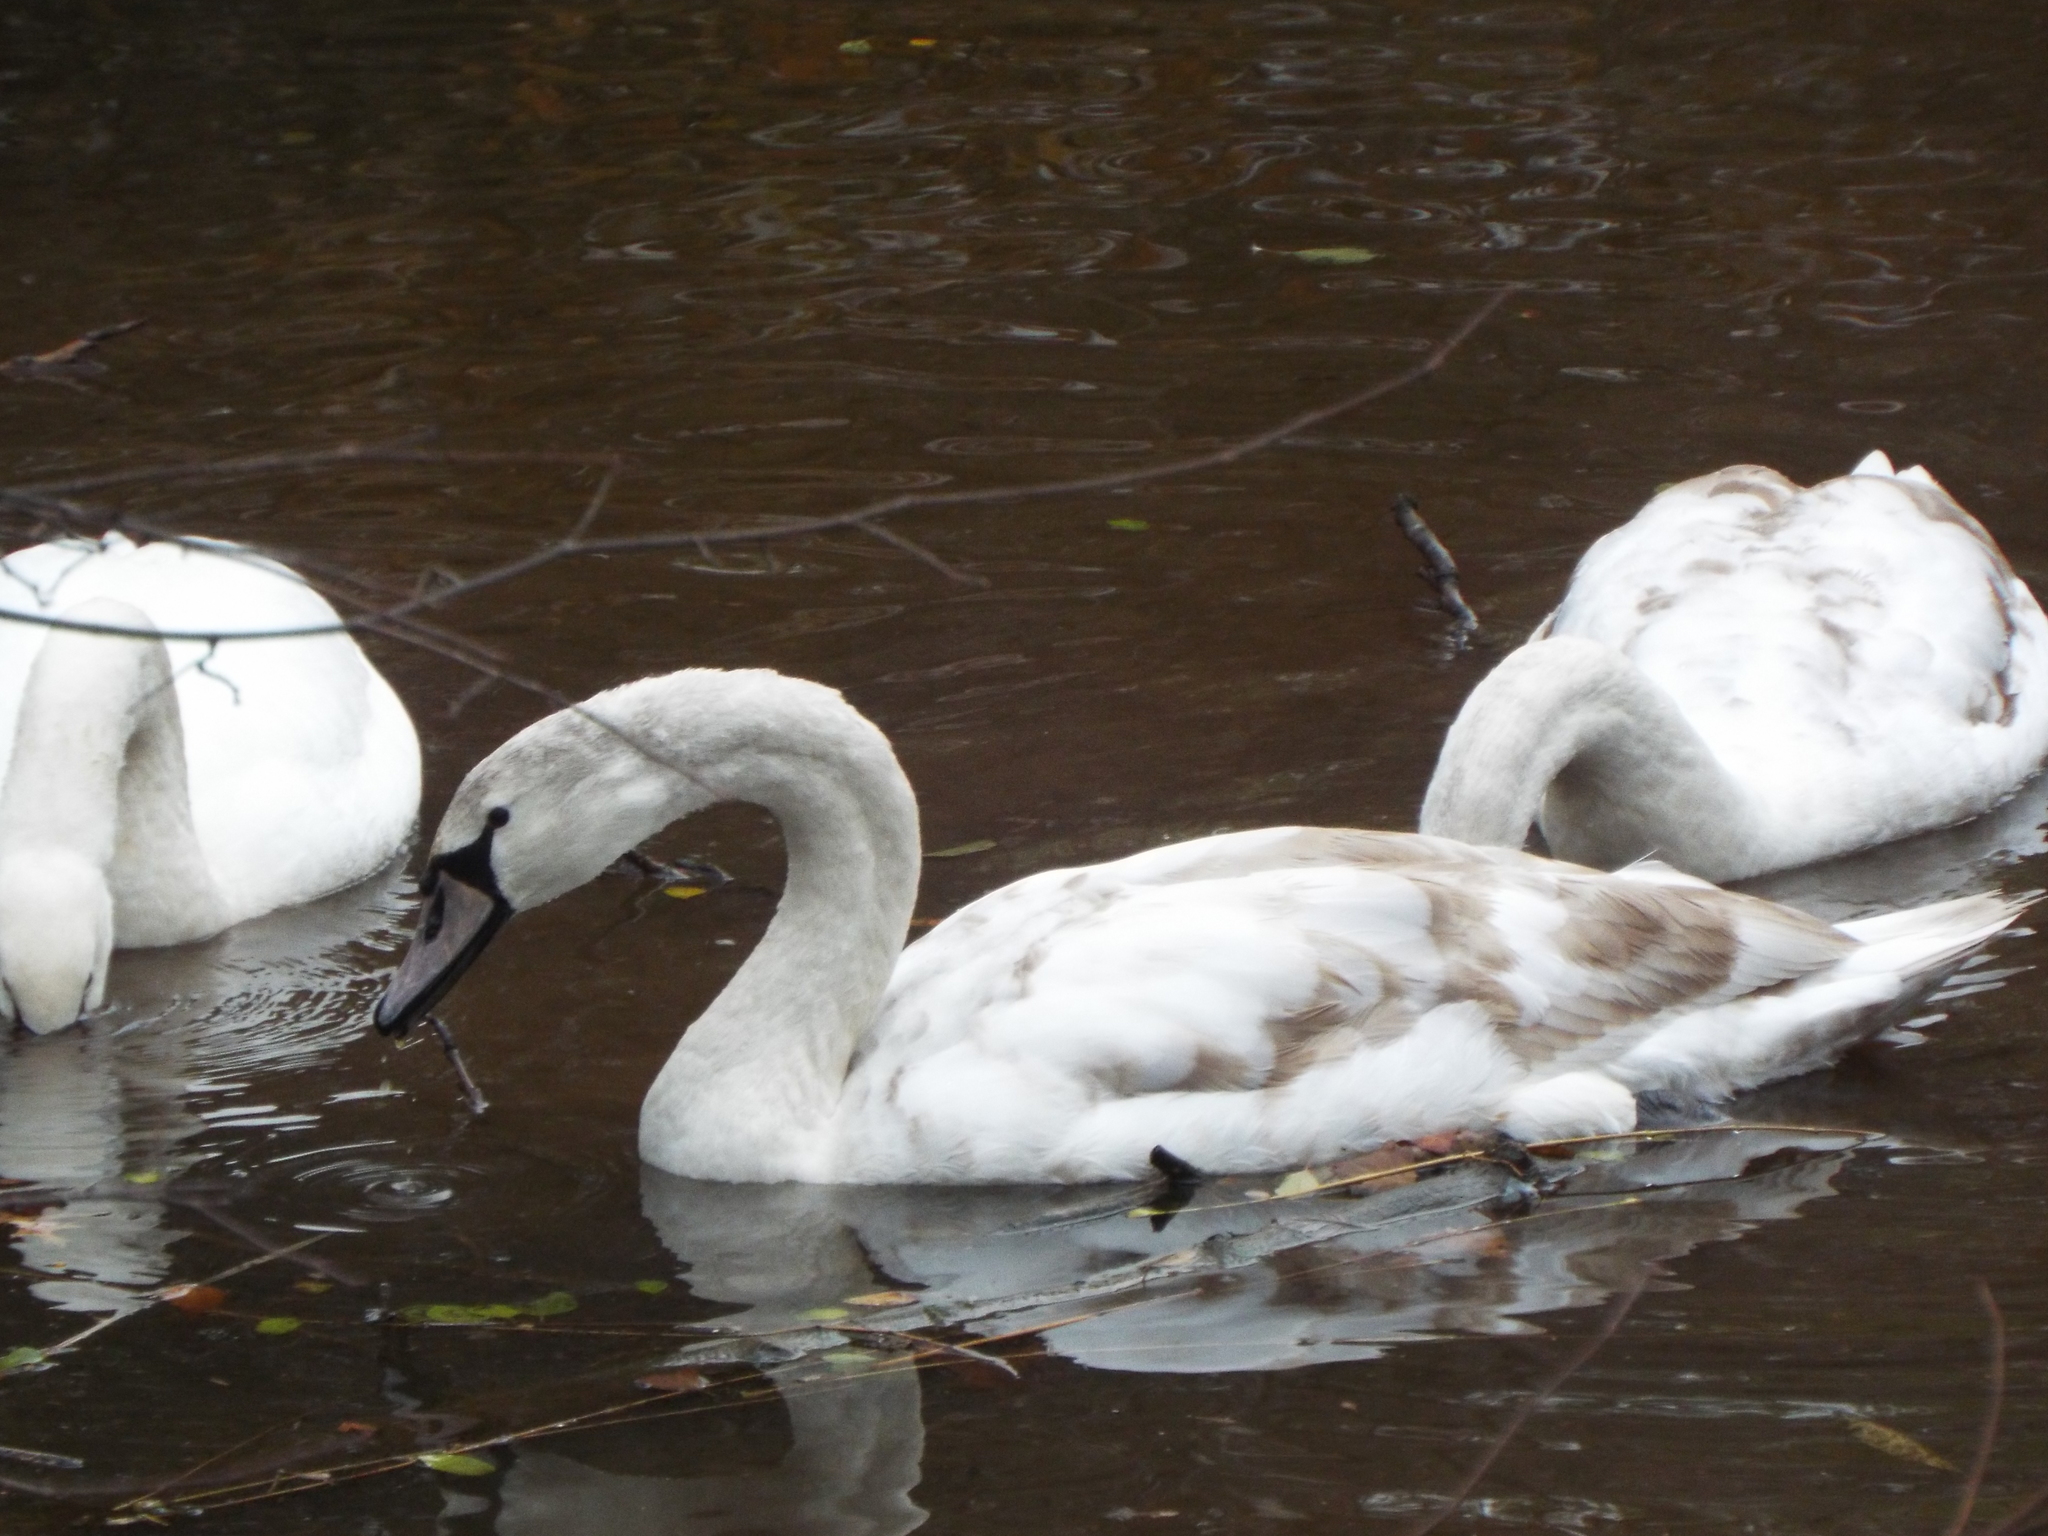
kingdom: Animalia
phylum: Chordata
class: Aves
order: Anseriformes
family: Anatidae
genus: Cygnus
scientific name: Cygnus olor
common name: Mute swan
